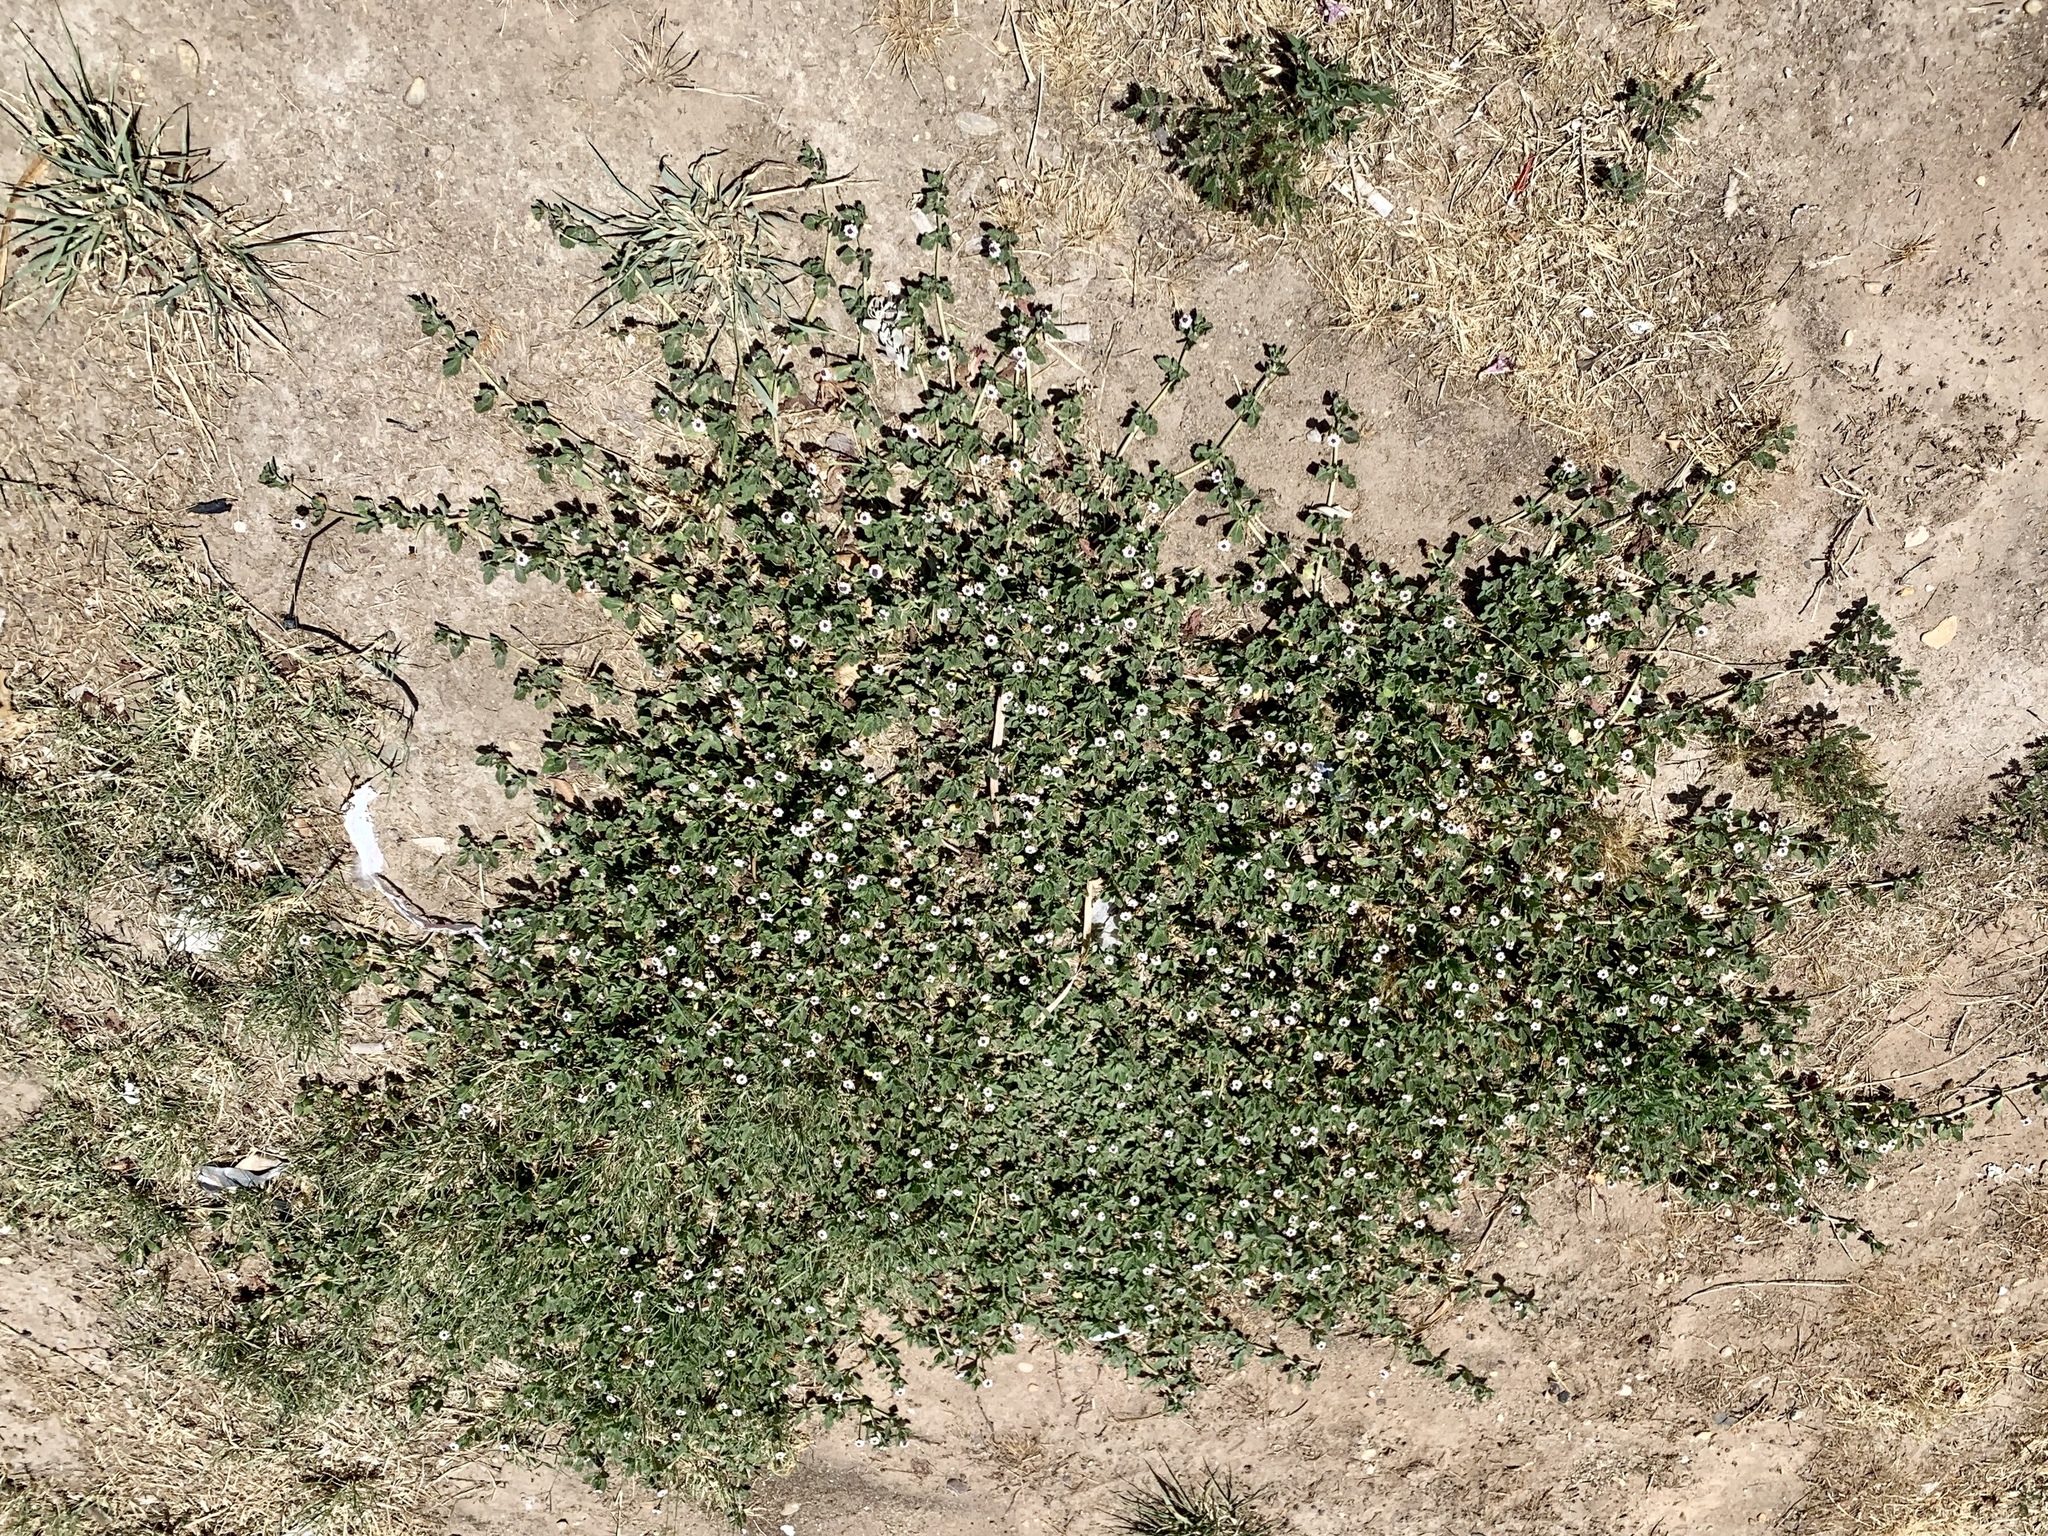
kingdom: Plantae
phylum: Tracheophyta
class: Magnoliopsida
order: Lamiales
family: Verbenaceae
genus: Phyla
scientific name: Phyla nodiflora
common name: Frogfruit
